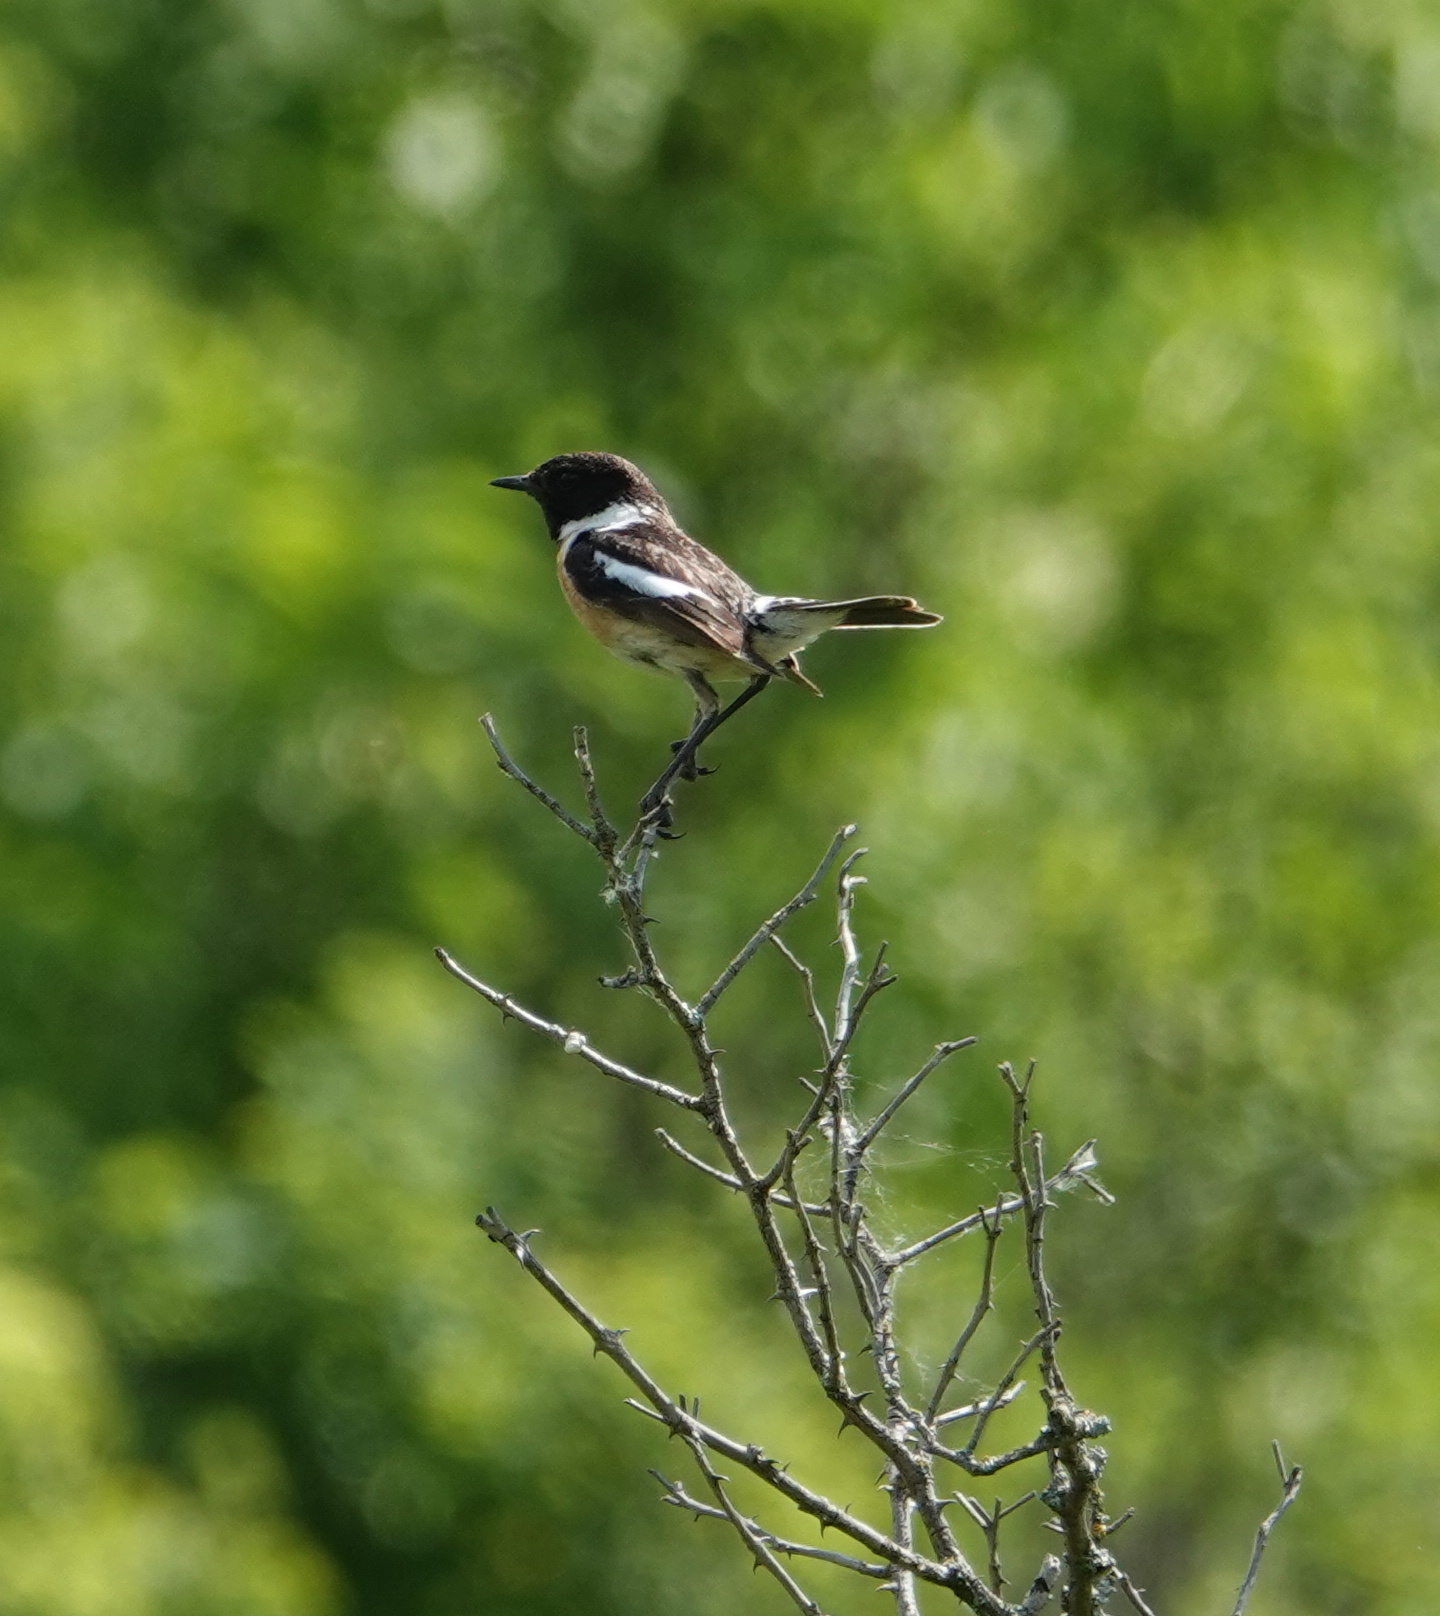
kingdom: Animalia
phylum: Chordata
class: Aves
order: Passeriformes
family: Muscicapidae
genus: Saxicola
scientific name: Saxicola rubicola
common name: European stonechat
